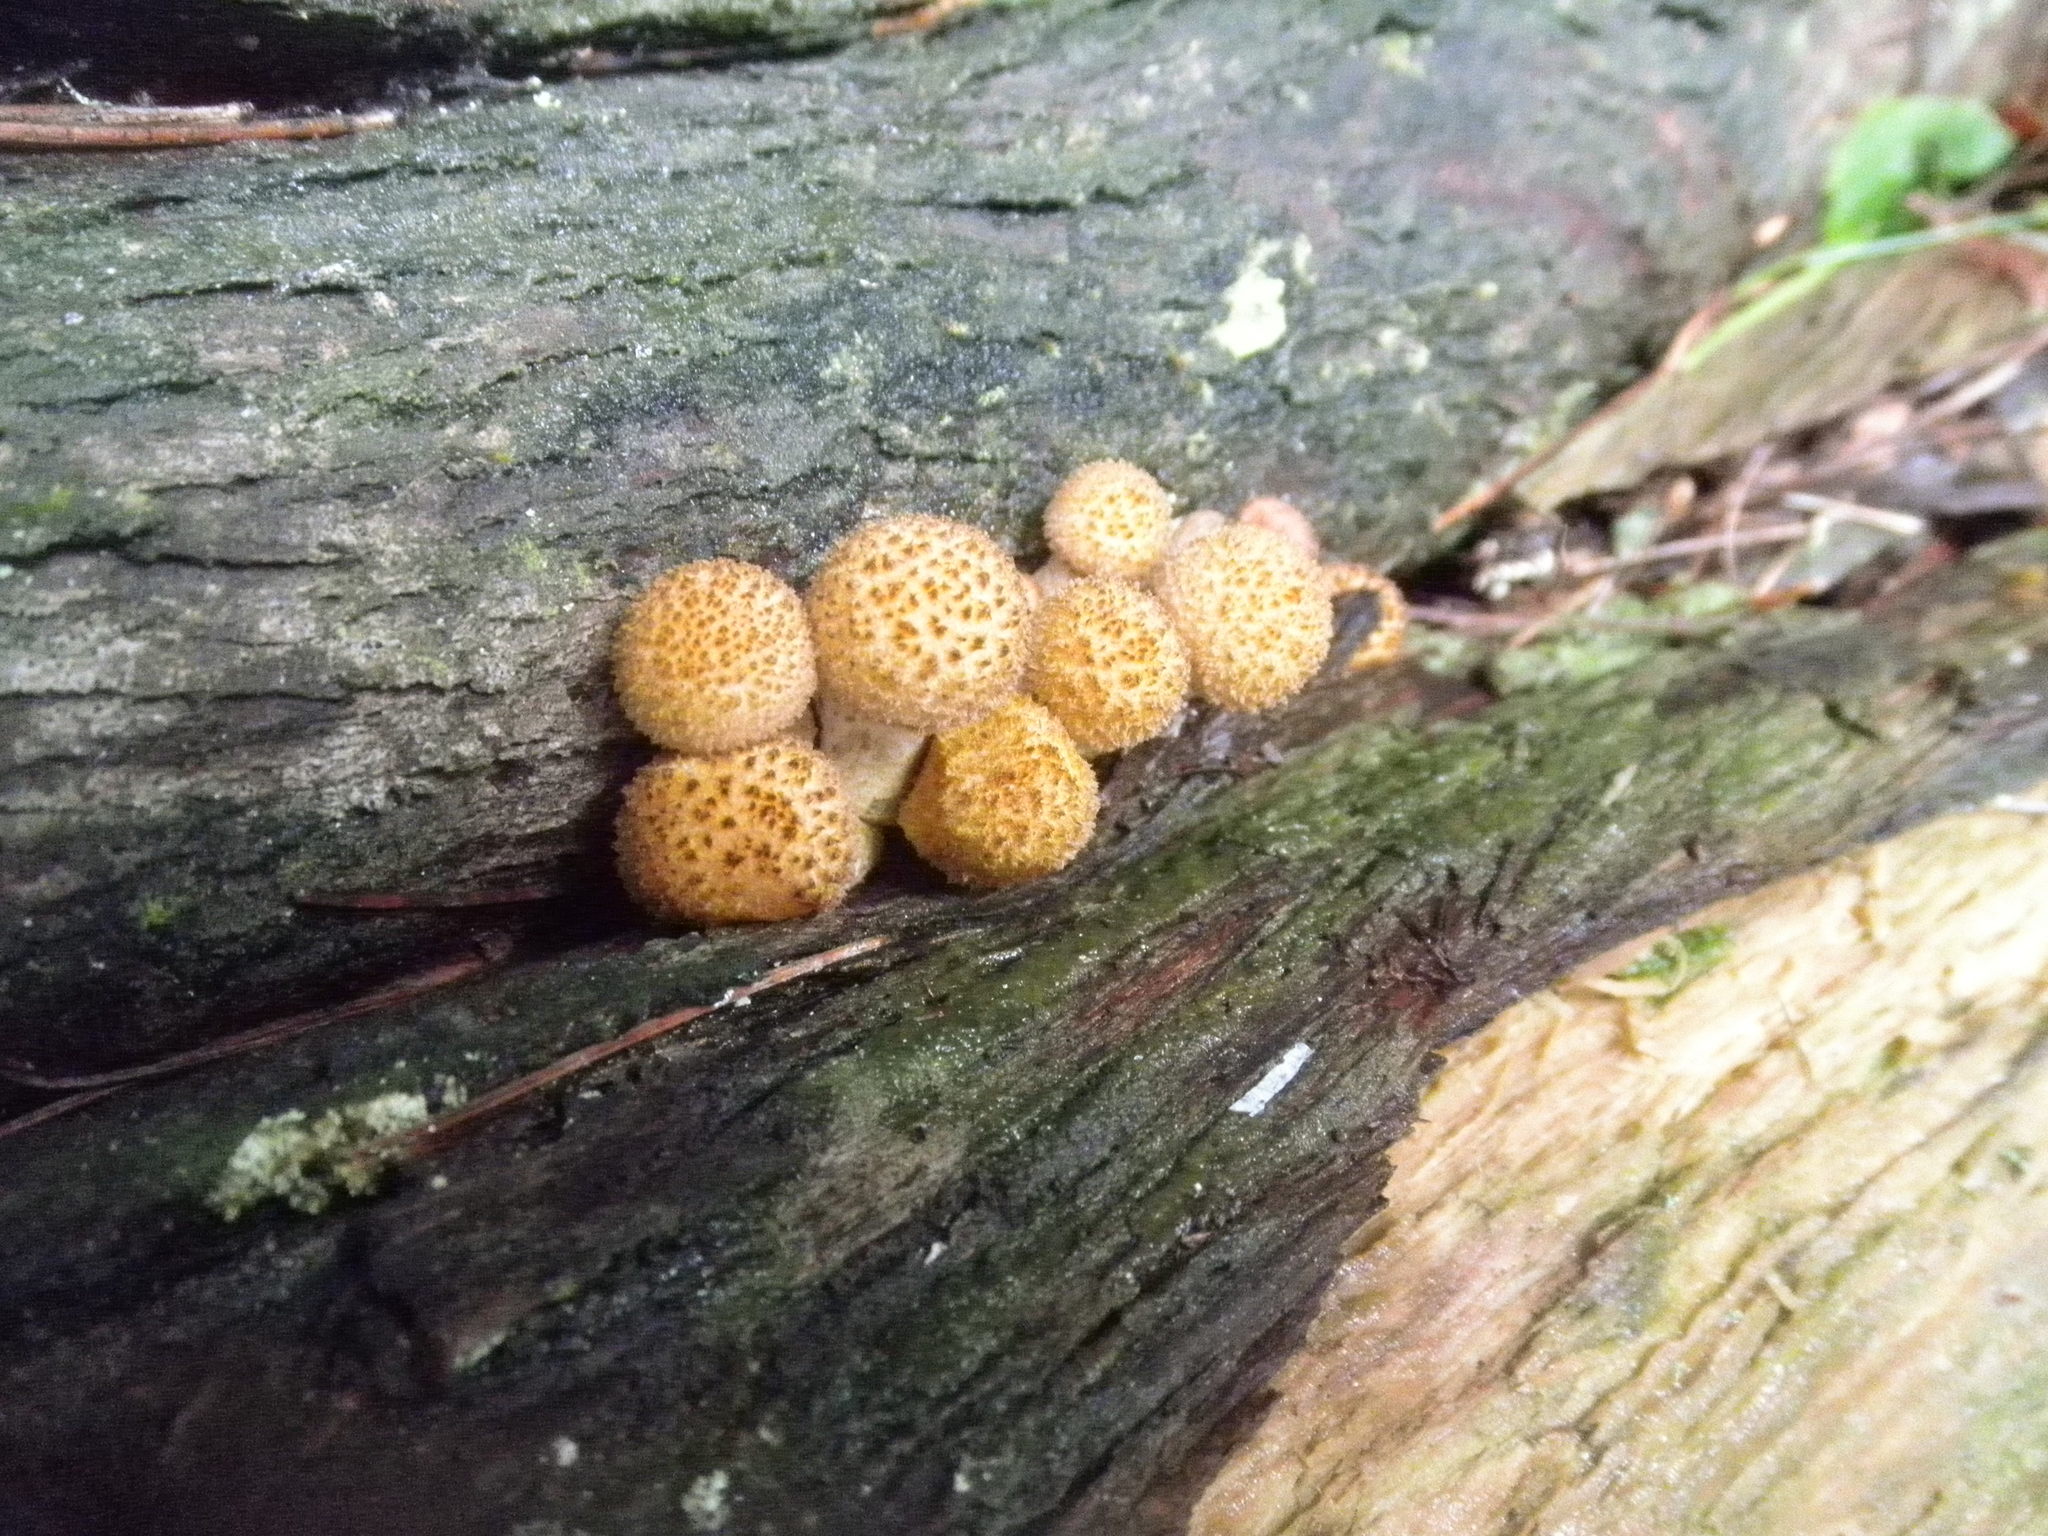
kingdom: Fungi
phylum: Basidiomycota
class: Agaricomycetes
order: Agaricales
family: Strophariaceae
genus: Pholiota
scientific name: Pholiota squarrosoides
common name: Sharp-scaly pholiota
